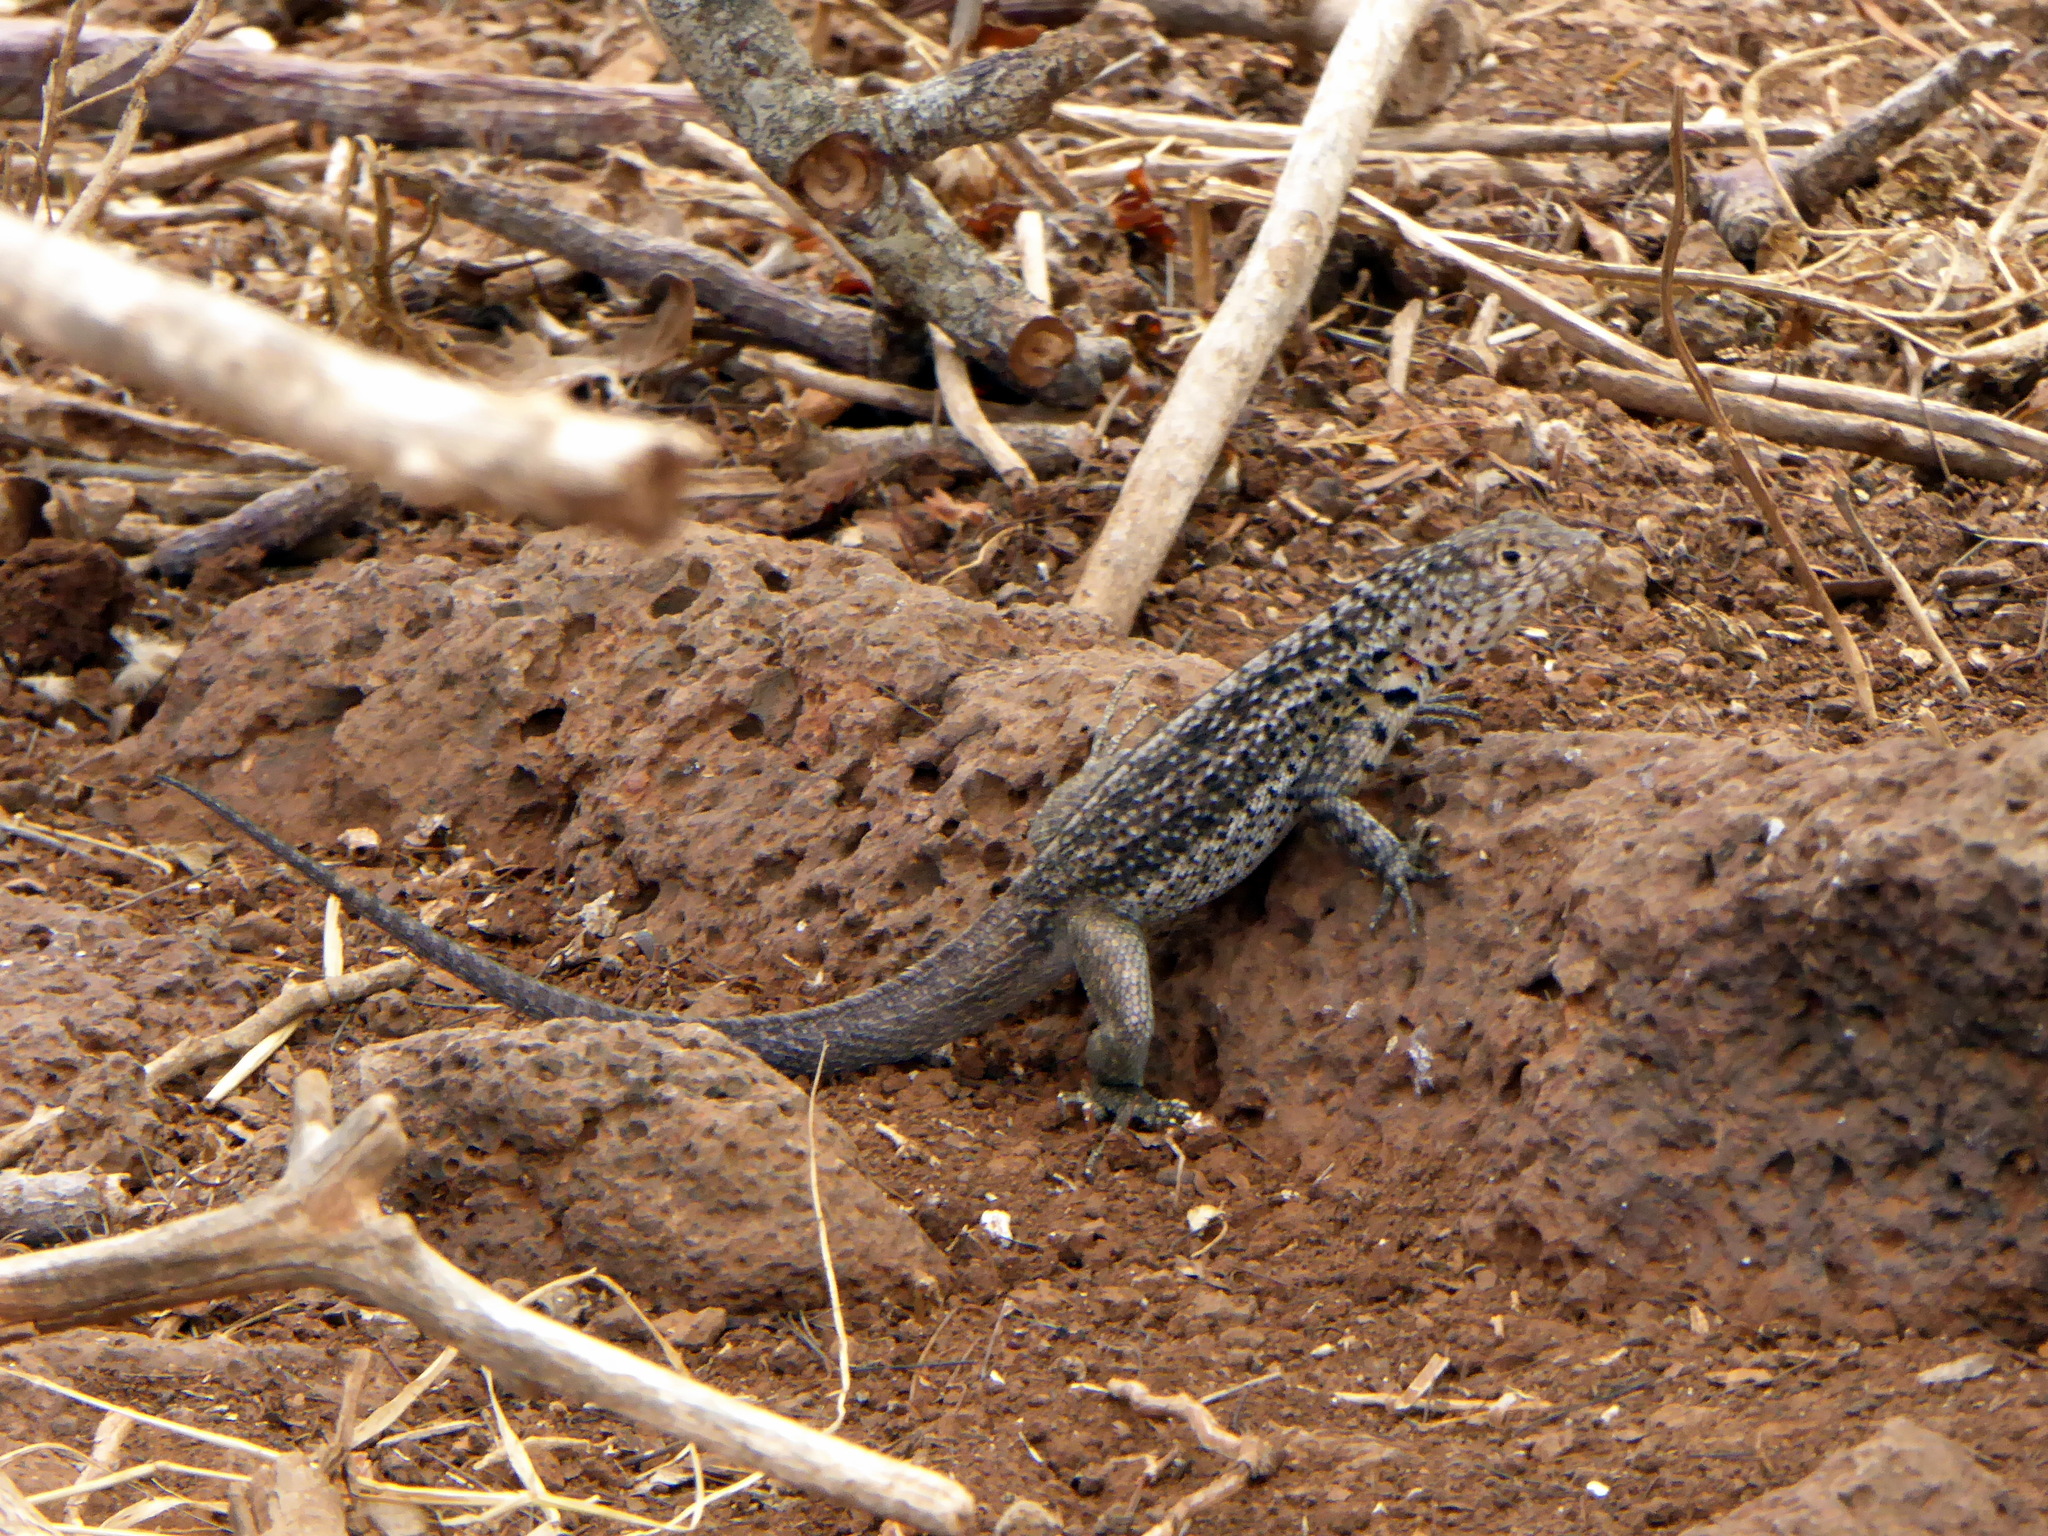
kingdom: Animalia
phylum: Chordata
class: Squamata
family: Tropiduridae
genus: Microlophus
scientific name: Microlophus indefatigabilis
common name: Galapagos lava lizard
